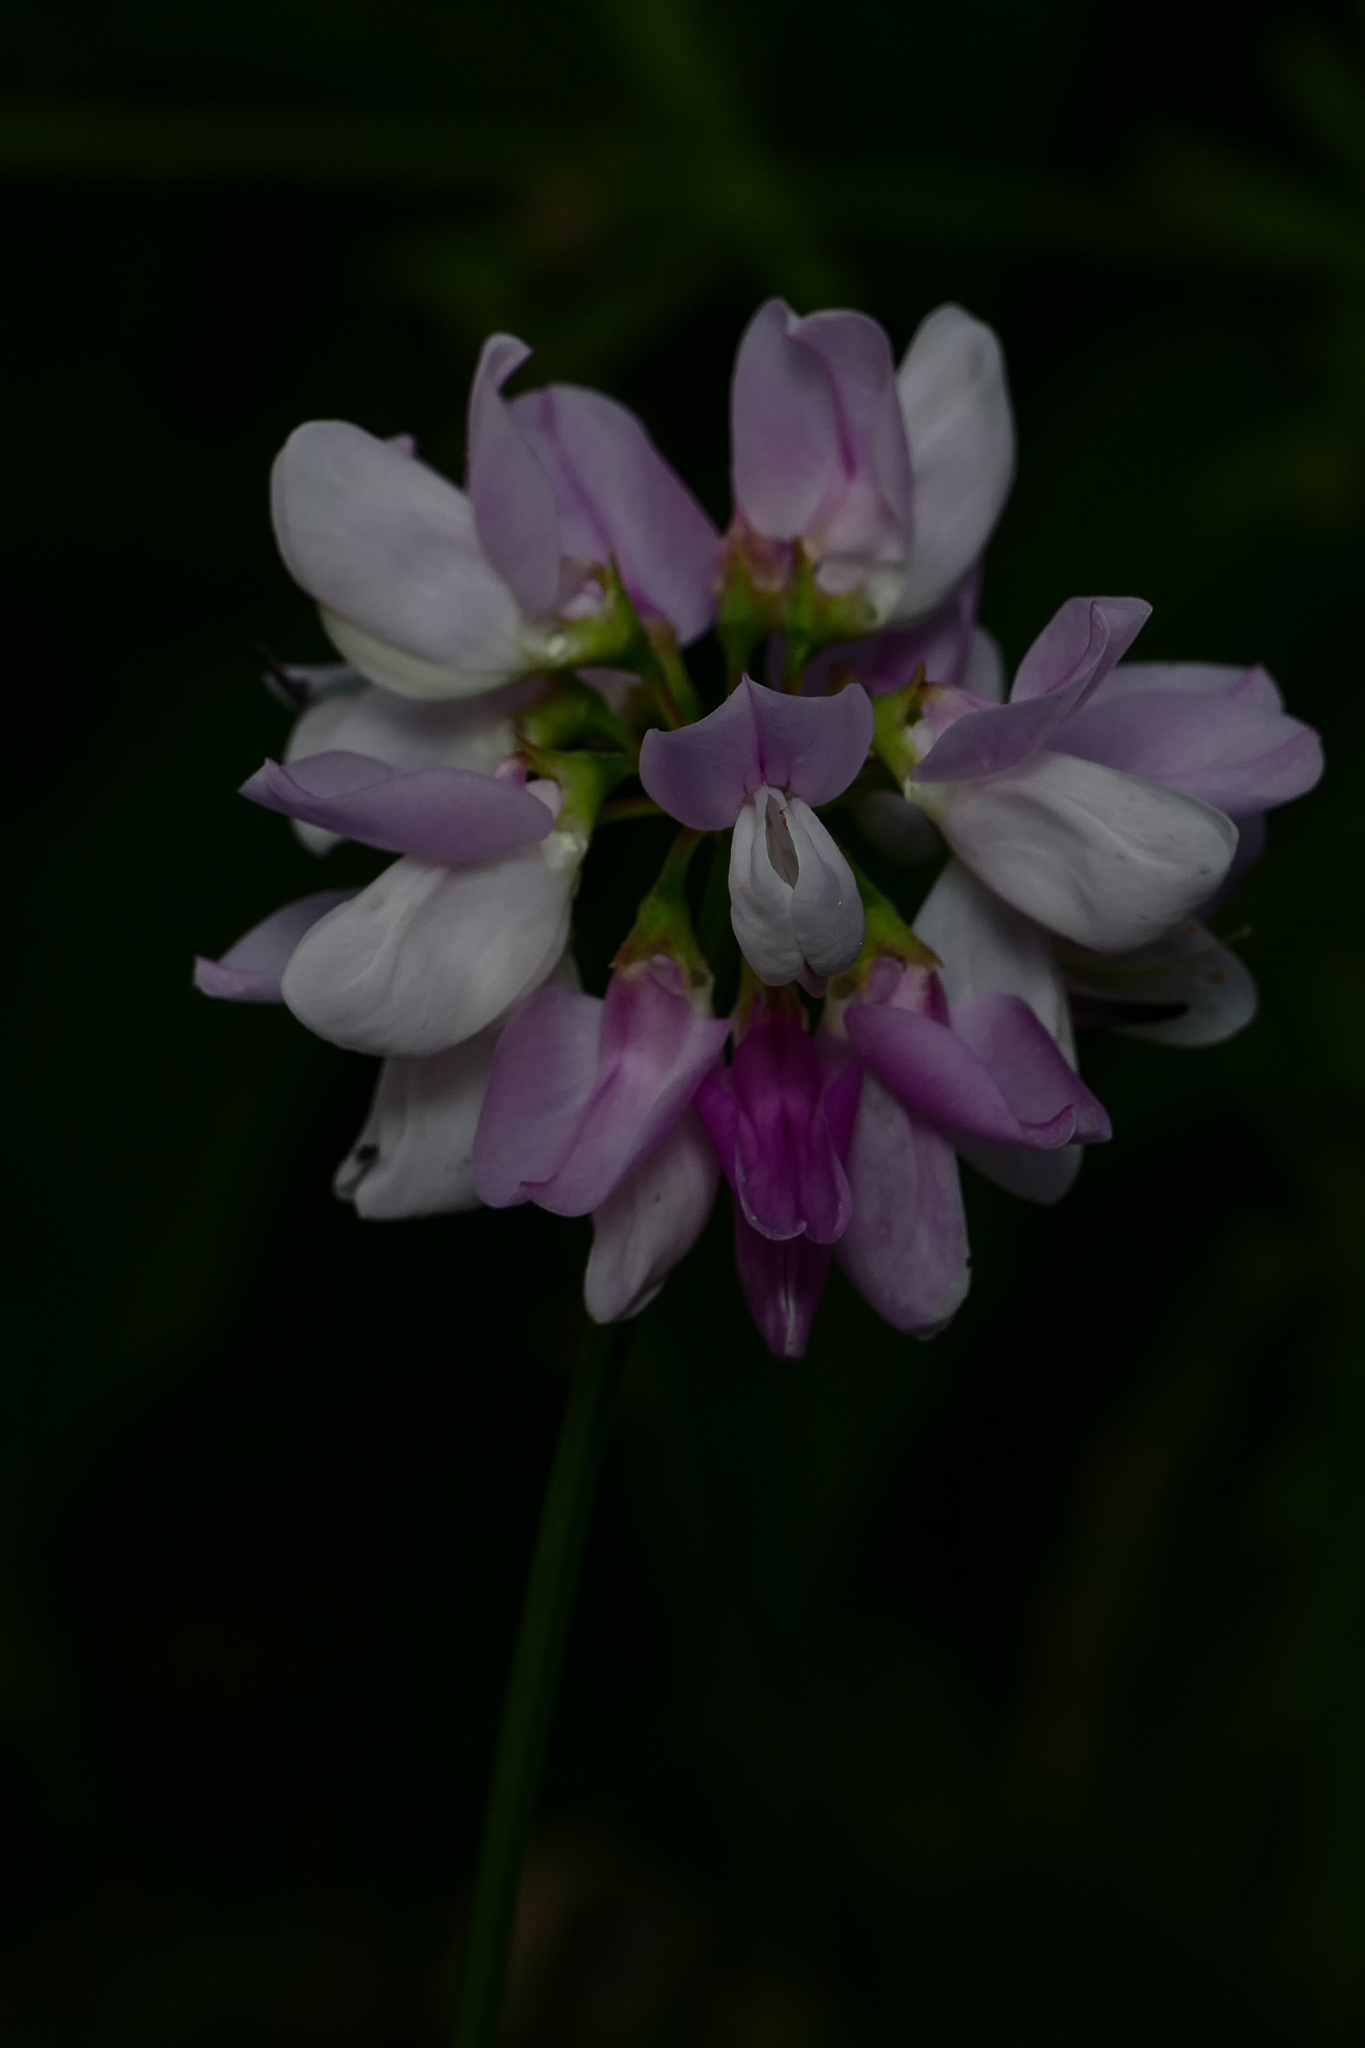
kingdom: Plantae
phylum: Tracheophyta
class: Magnoliopsida
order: Fabales
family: Fabaceae
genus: Coronilla
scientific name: Coronilla varia
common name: Crownvetch
